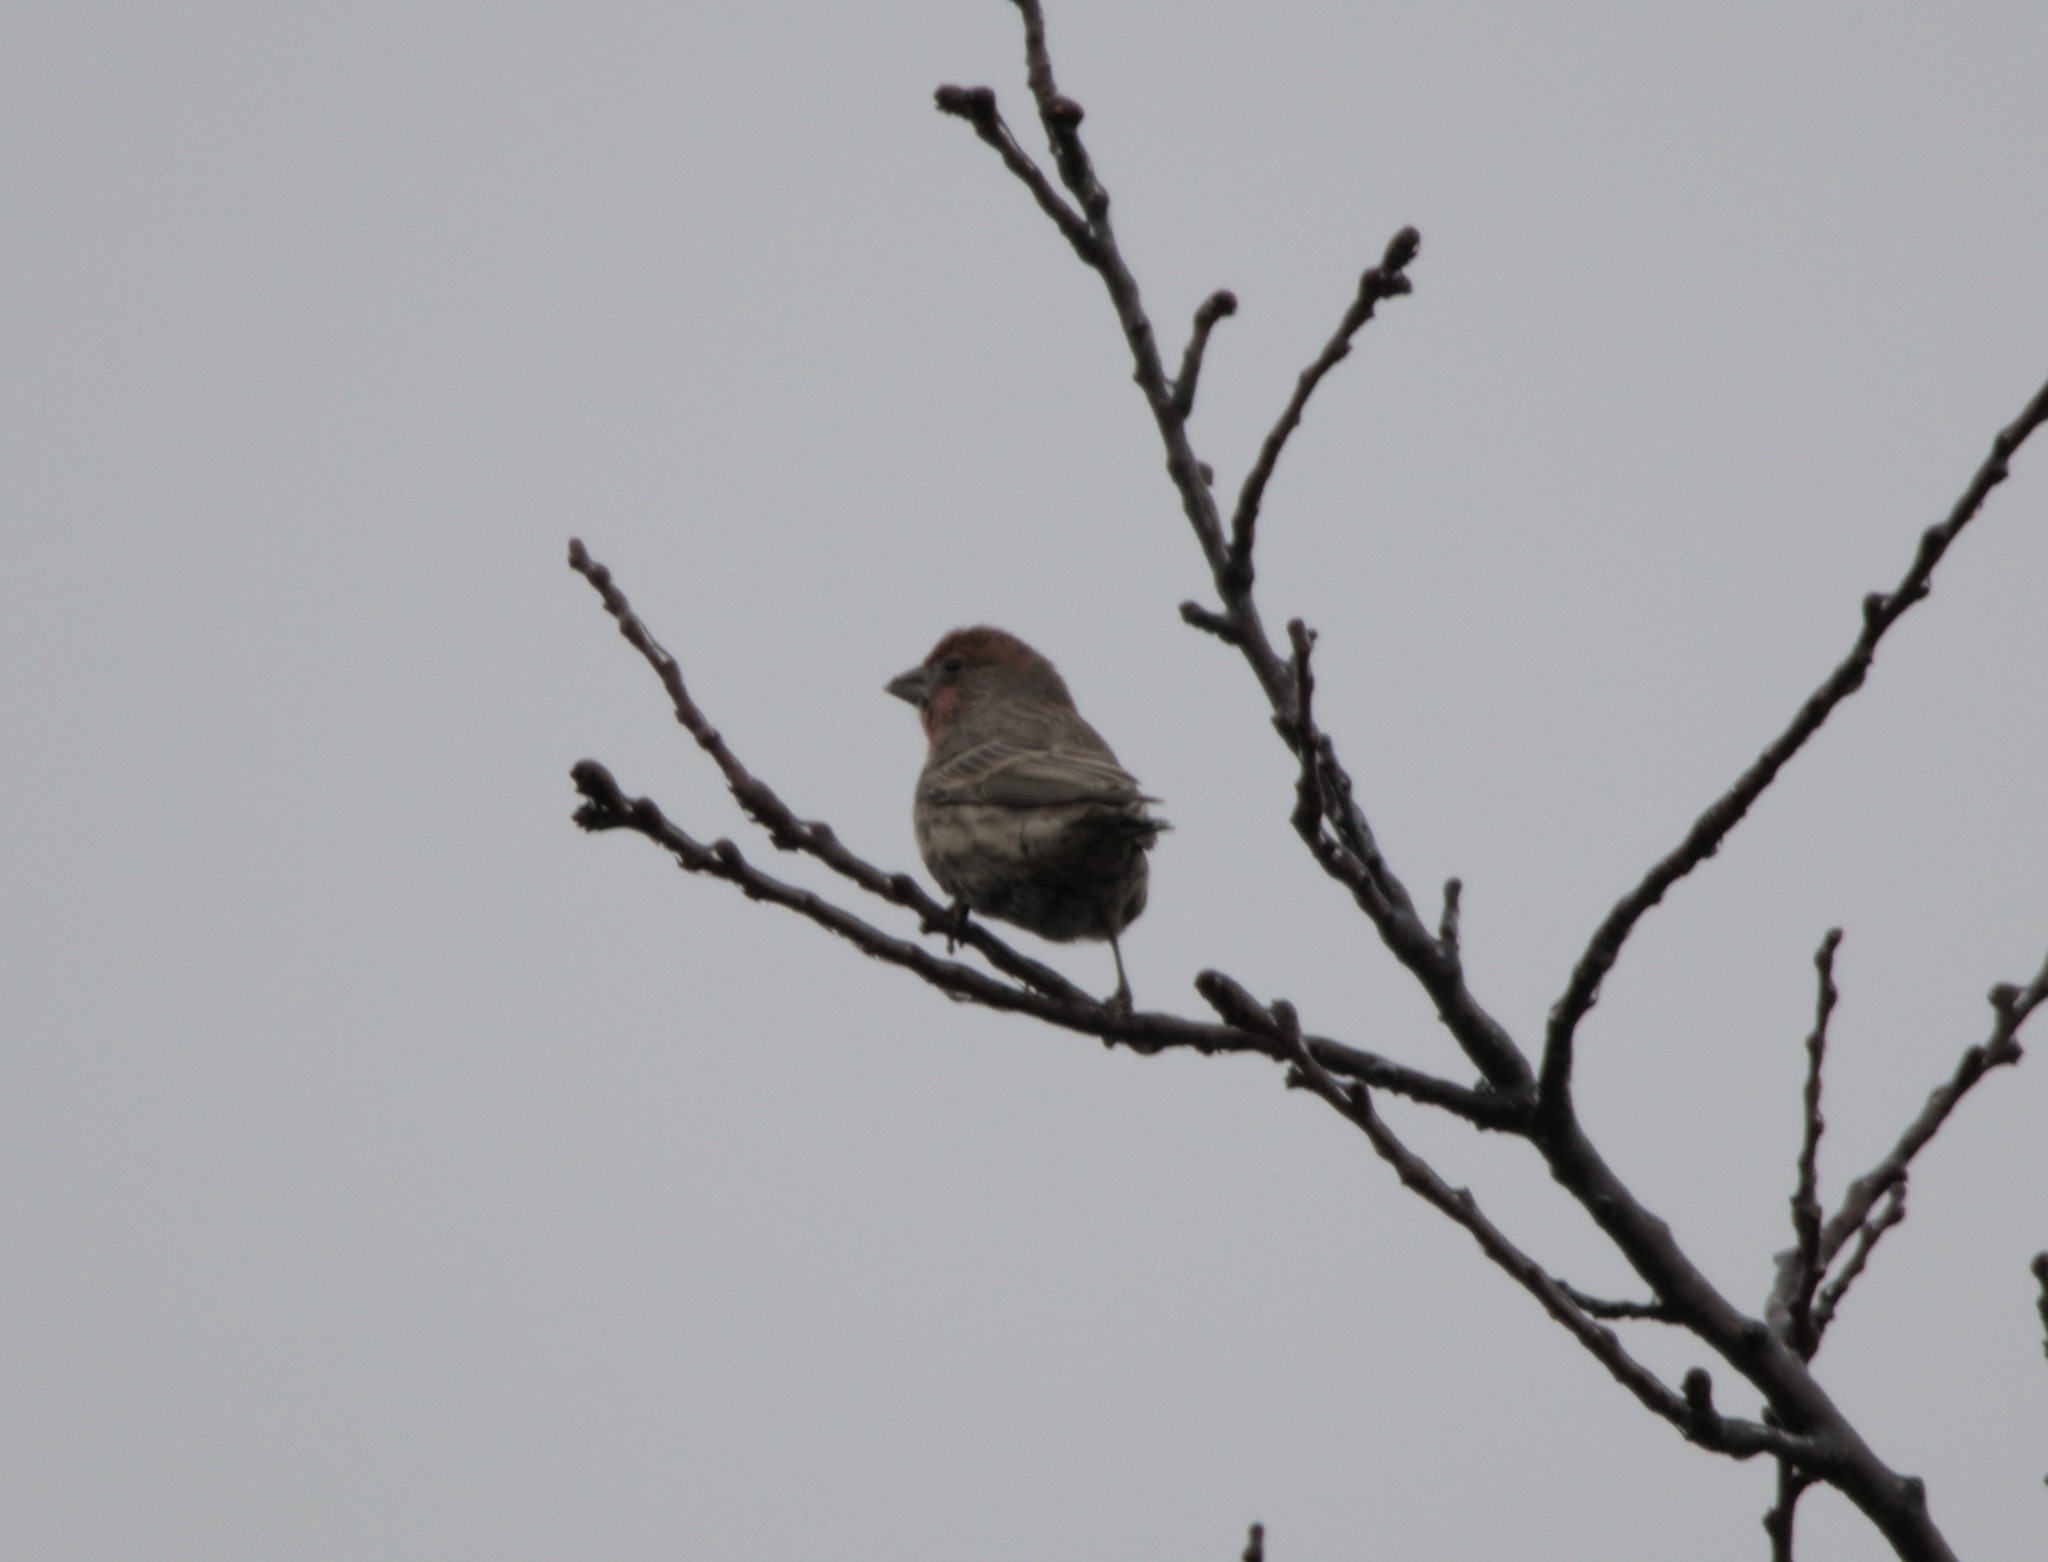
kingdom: Animalia
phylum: Chordata
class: Aves
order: Passeriformes
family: Fringillidae
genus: Haemorhous
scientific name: Haemorhous mexicanus
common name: House finch
